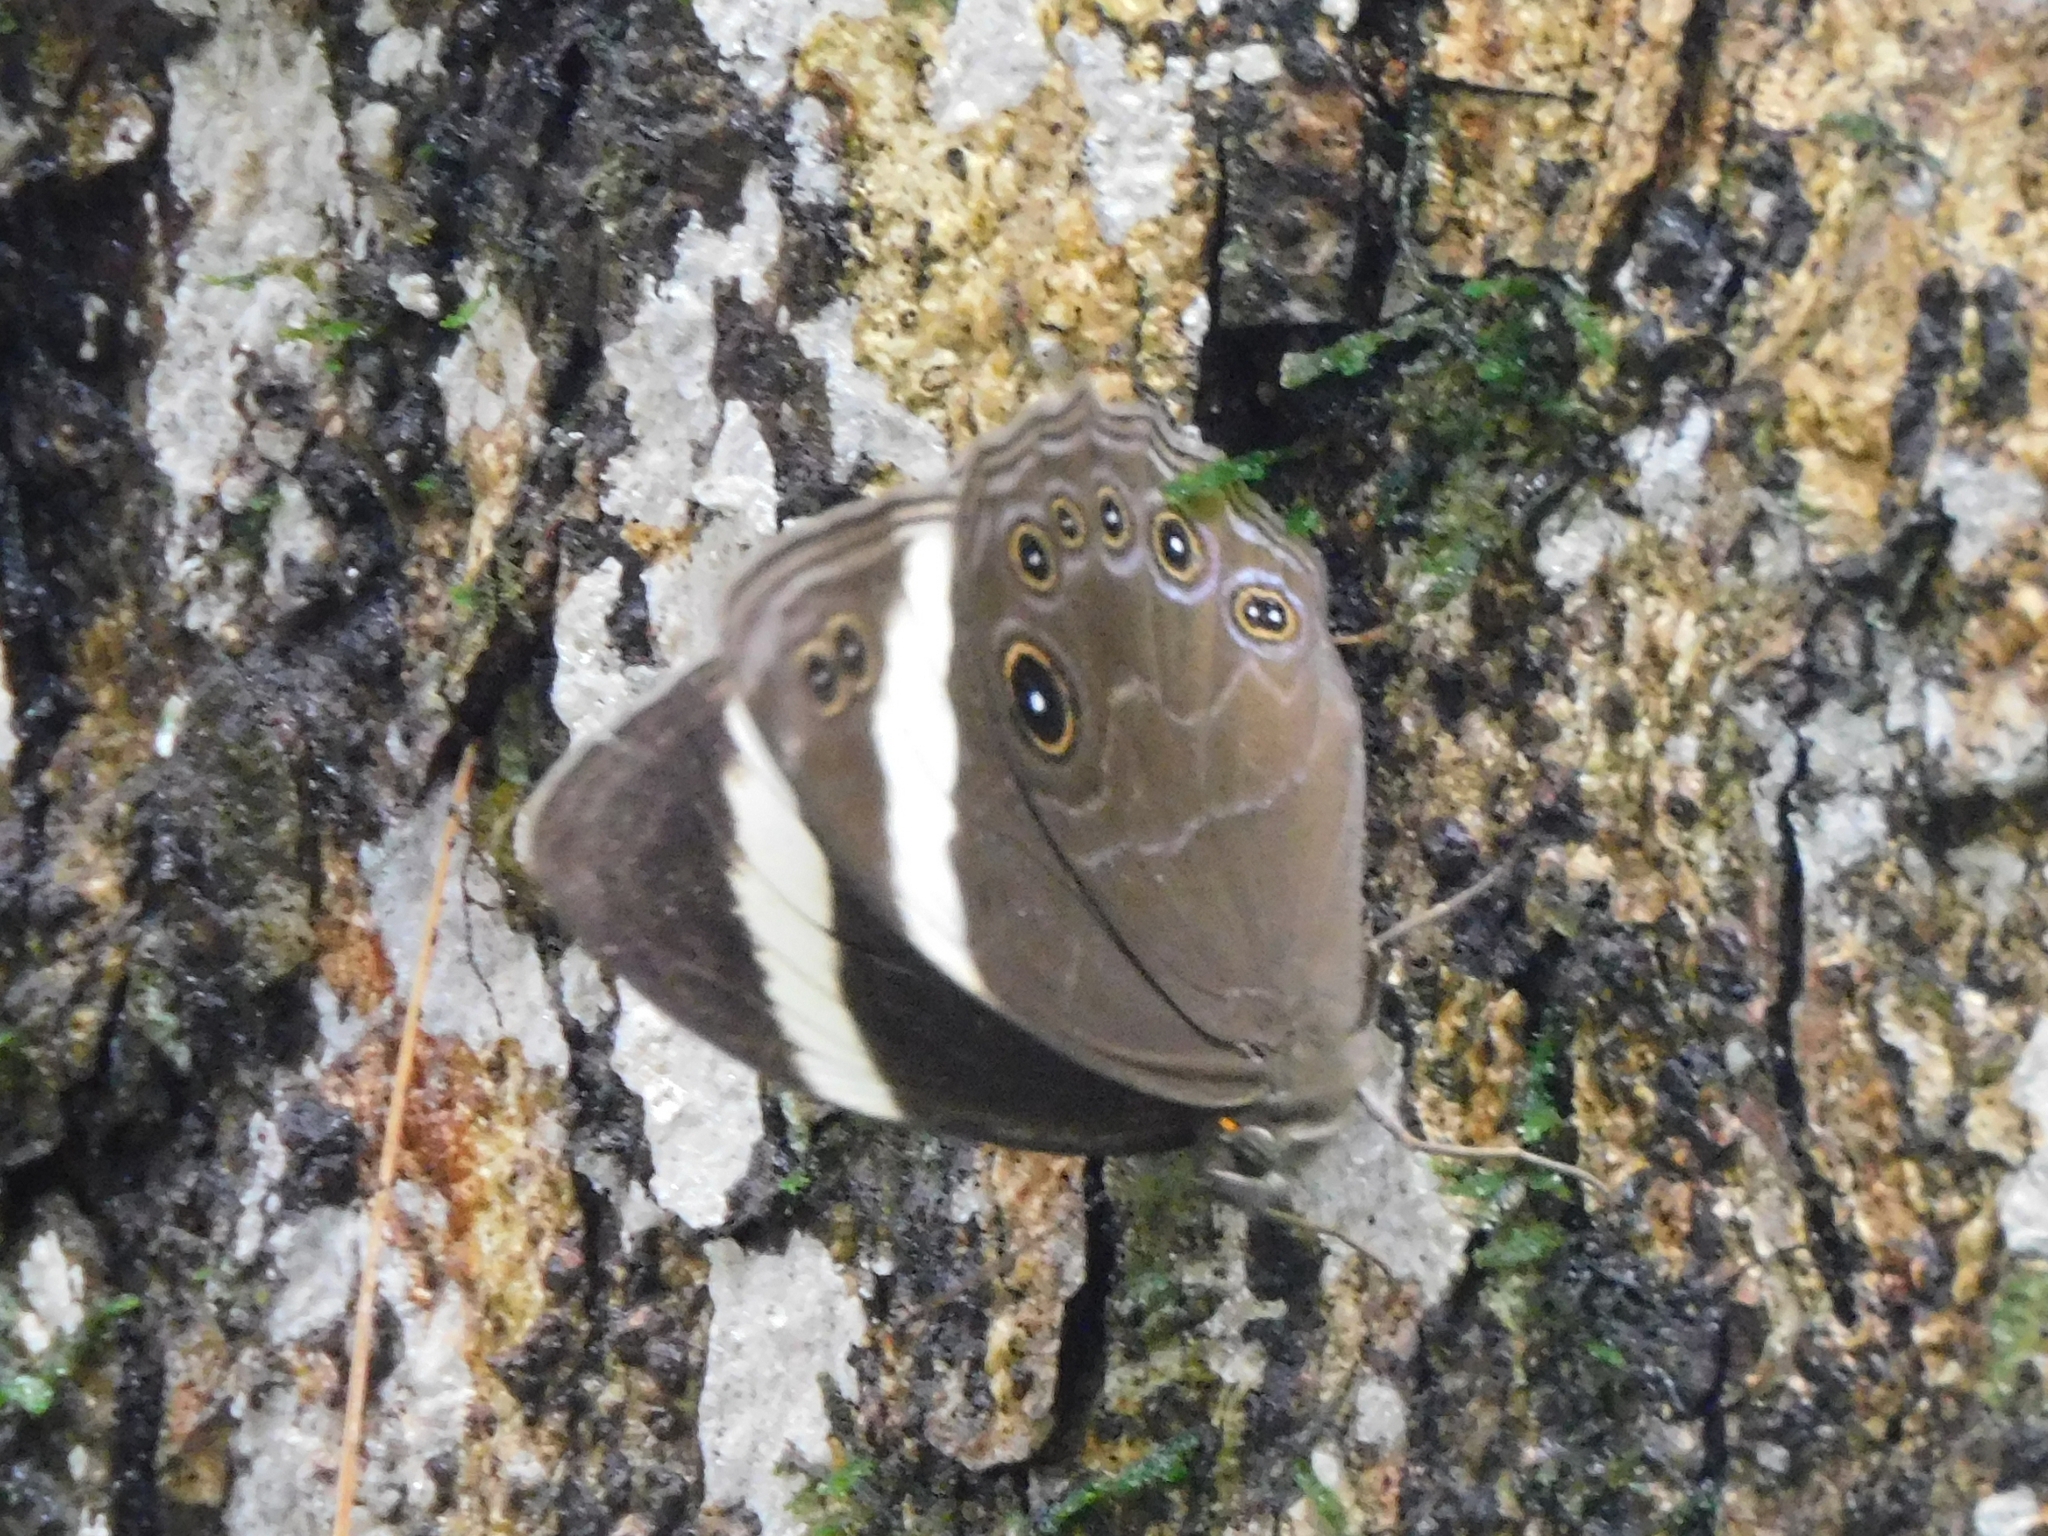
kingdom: Animalia
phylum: Arthropoda
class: Insecta
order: Lepidoptera
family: Nymphalidae
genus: Lethe
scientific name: Lethe verma
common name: Straight-banded treebrown
